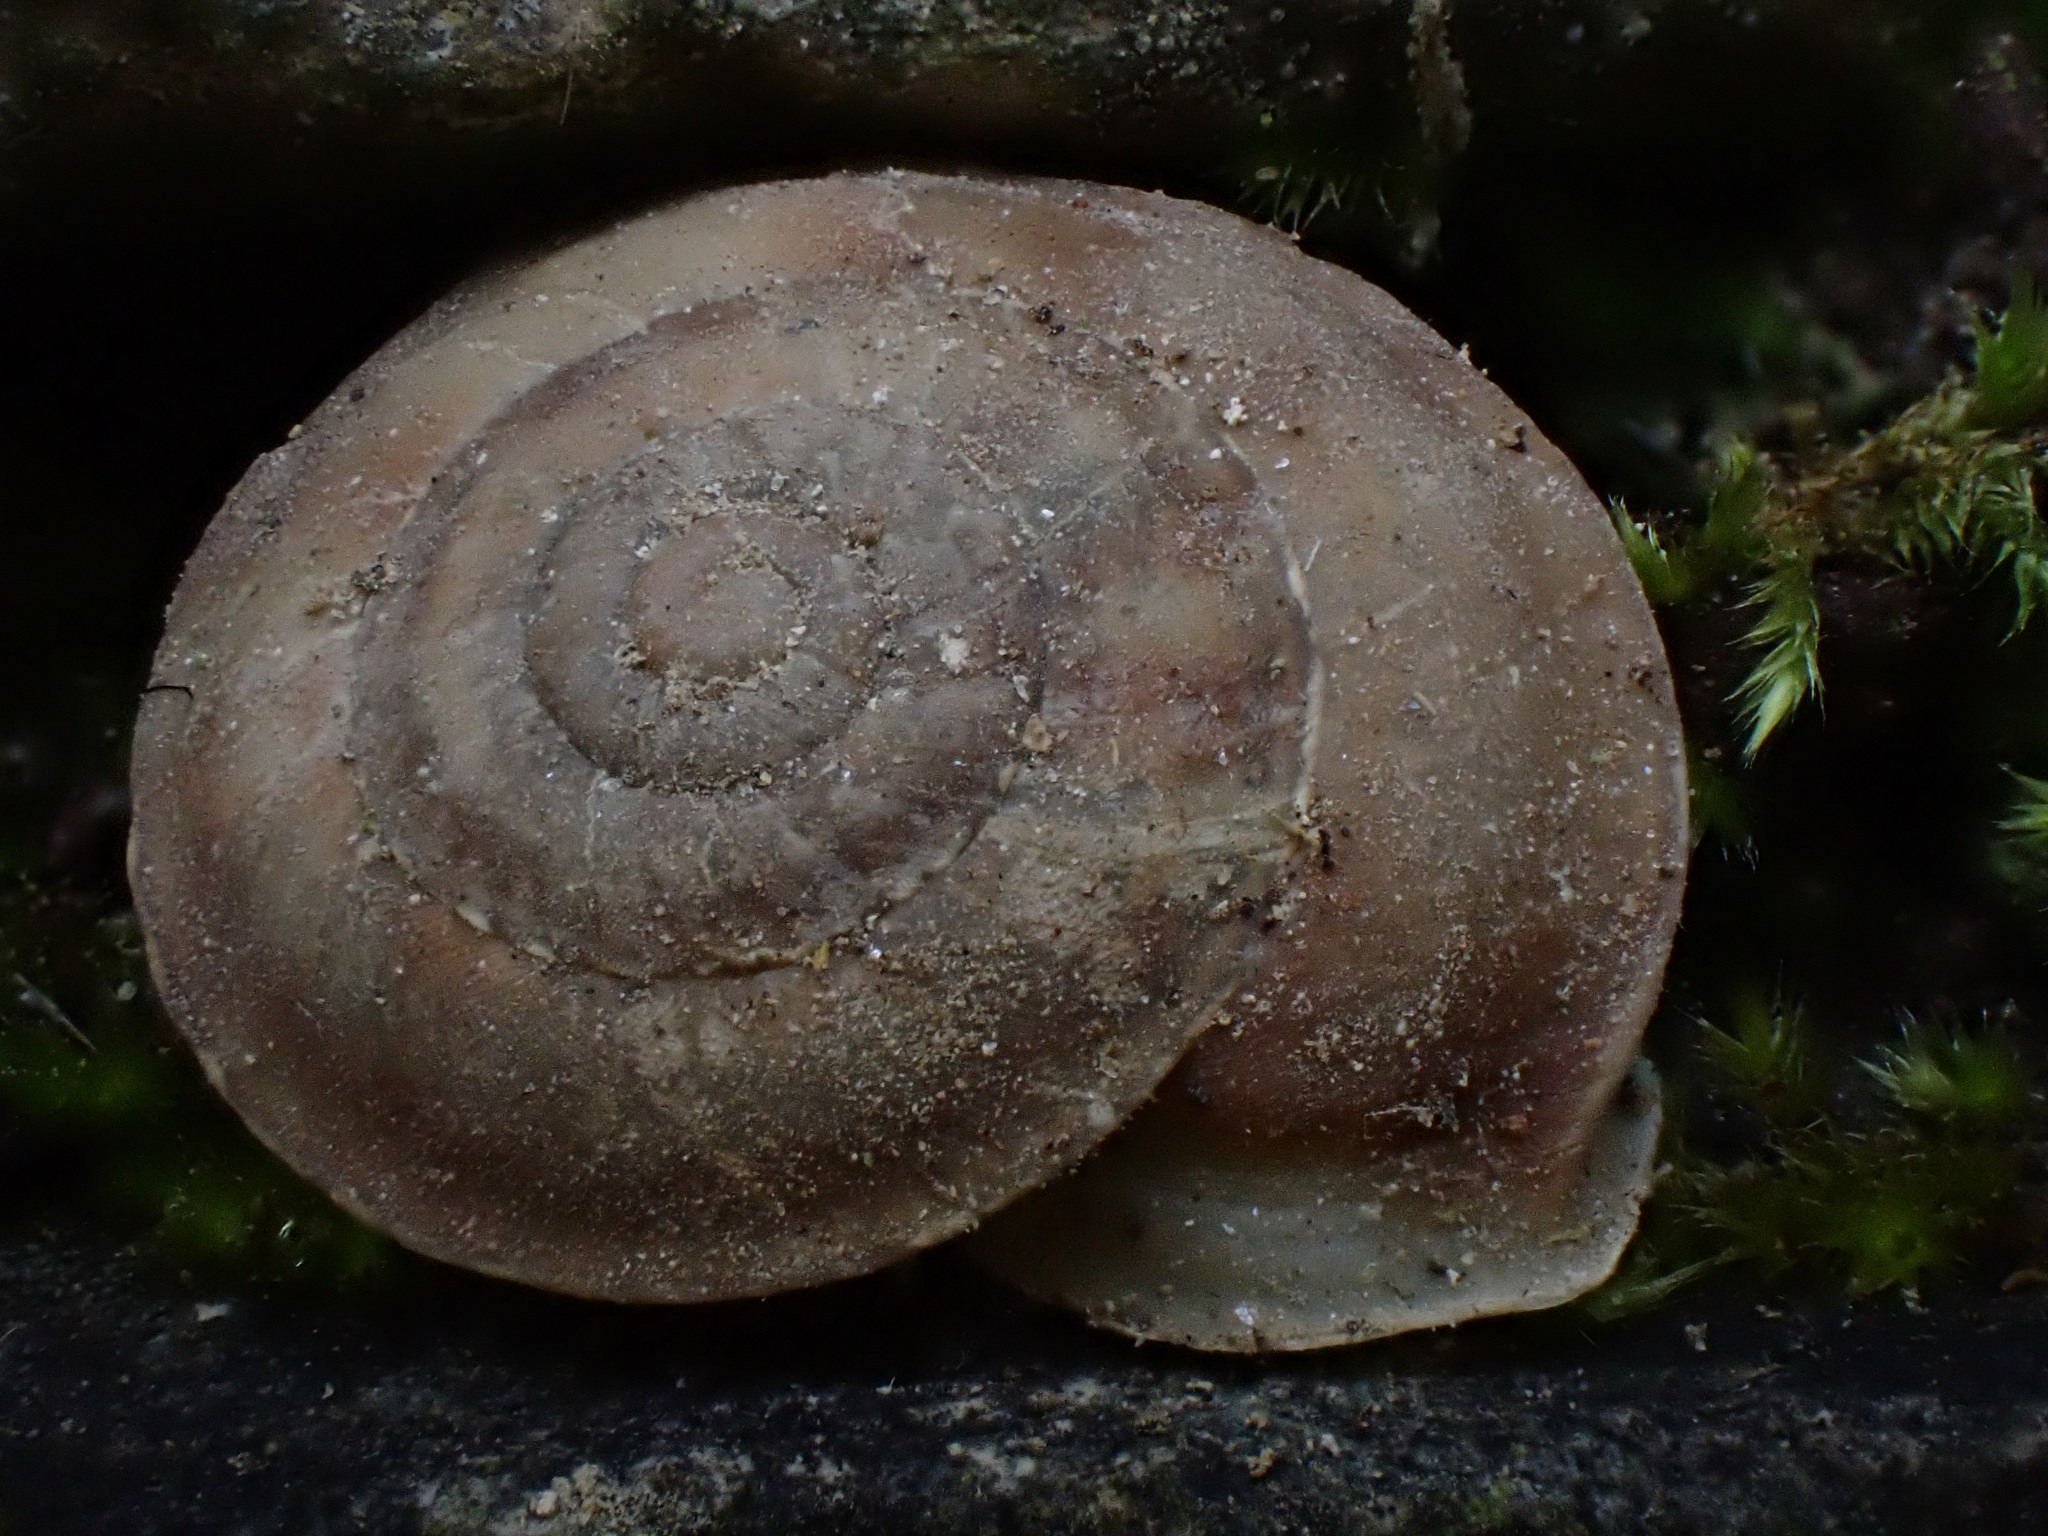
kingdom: Animalia
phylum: Mollusca
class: Gastropoda
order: Stylommatophora
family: Helicidae
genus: Helicigona
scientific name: Helicigona lapicida
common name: Lapidary snail
